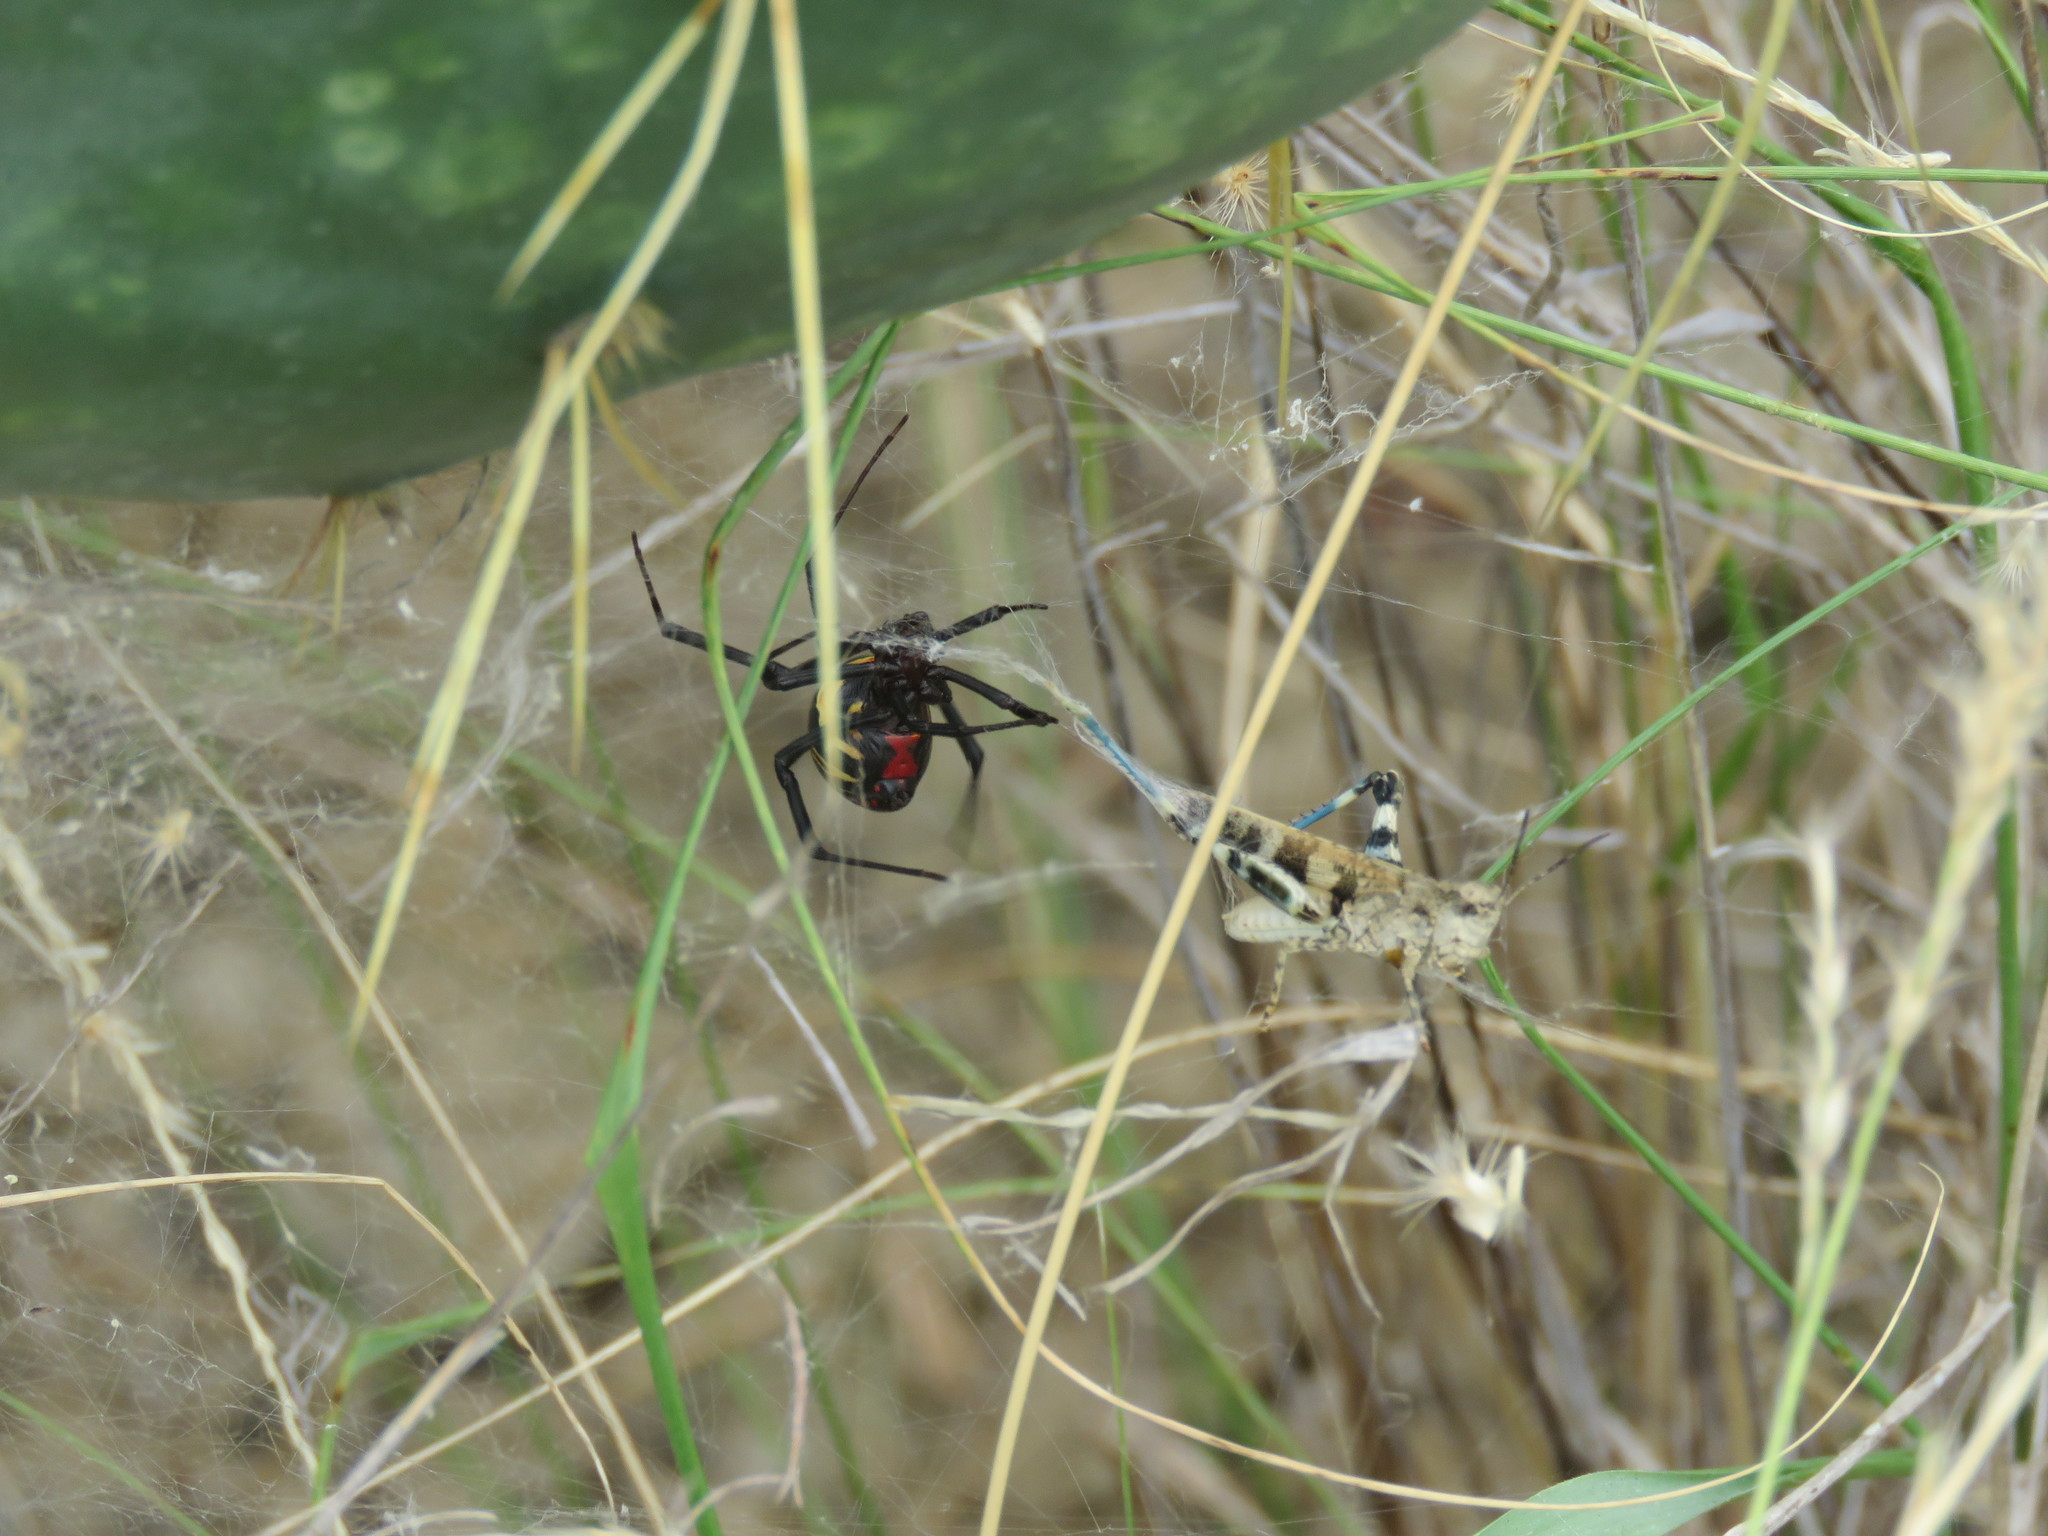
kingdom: Animalia
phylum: Arthropoda
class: Arachnida
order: Araneae
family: Theridiidae
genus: Latrodectus
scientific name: Latrodectus mactans
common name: Cobweb spiders
